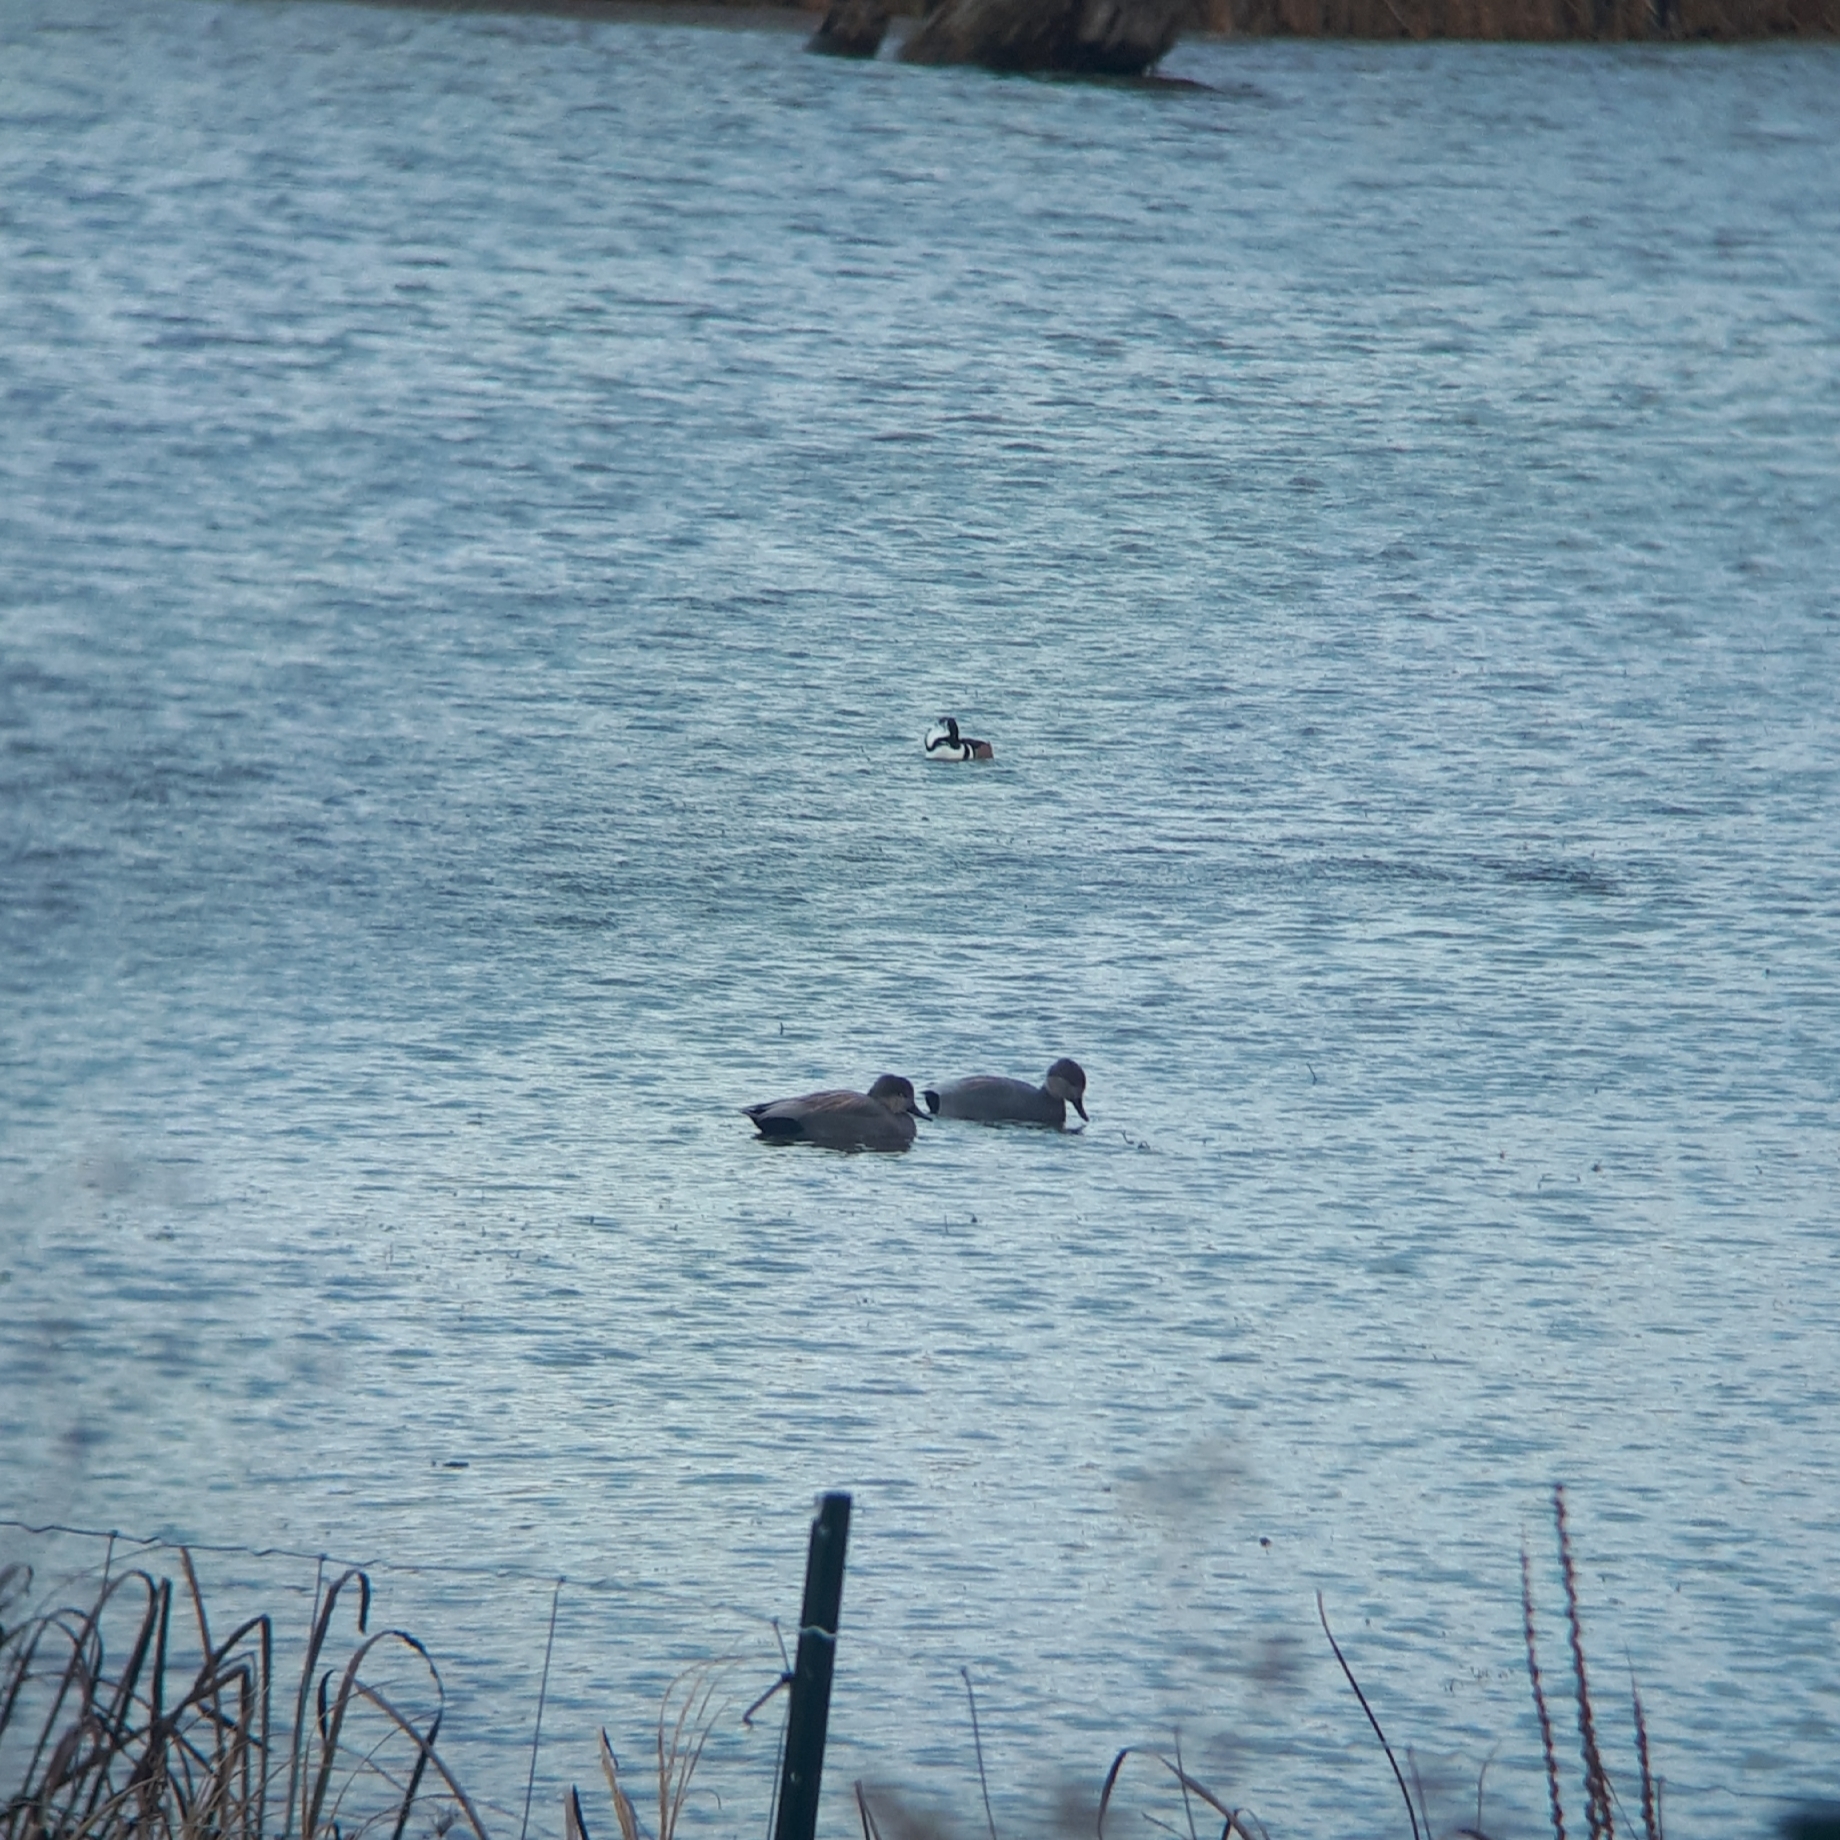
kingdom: Animalia
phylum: Chordata
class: Aves
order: Anseriformes
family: Anatidae
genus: Mareca
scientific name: Mareca strepera
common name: Gadwall
